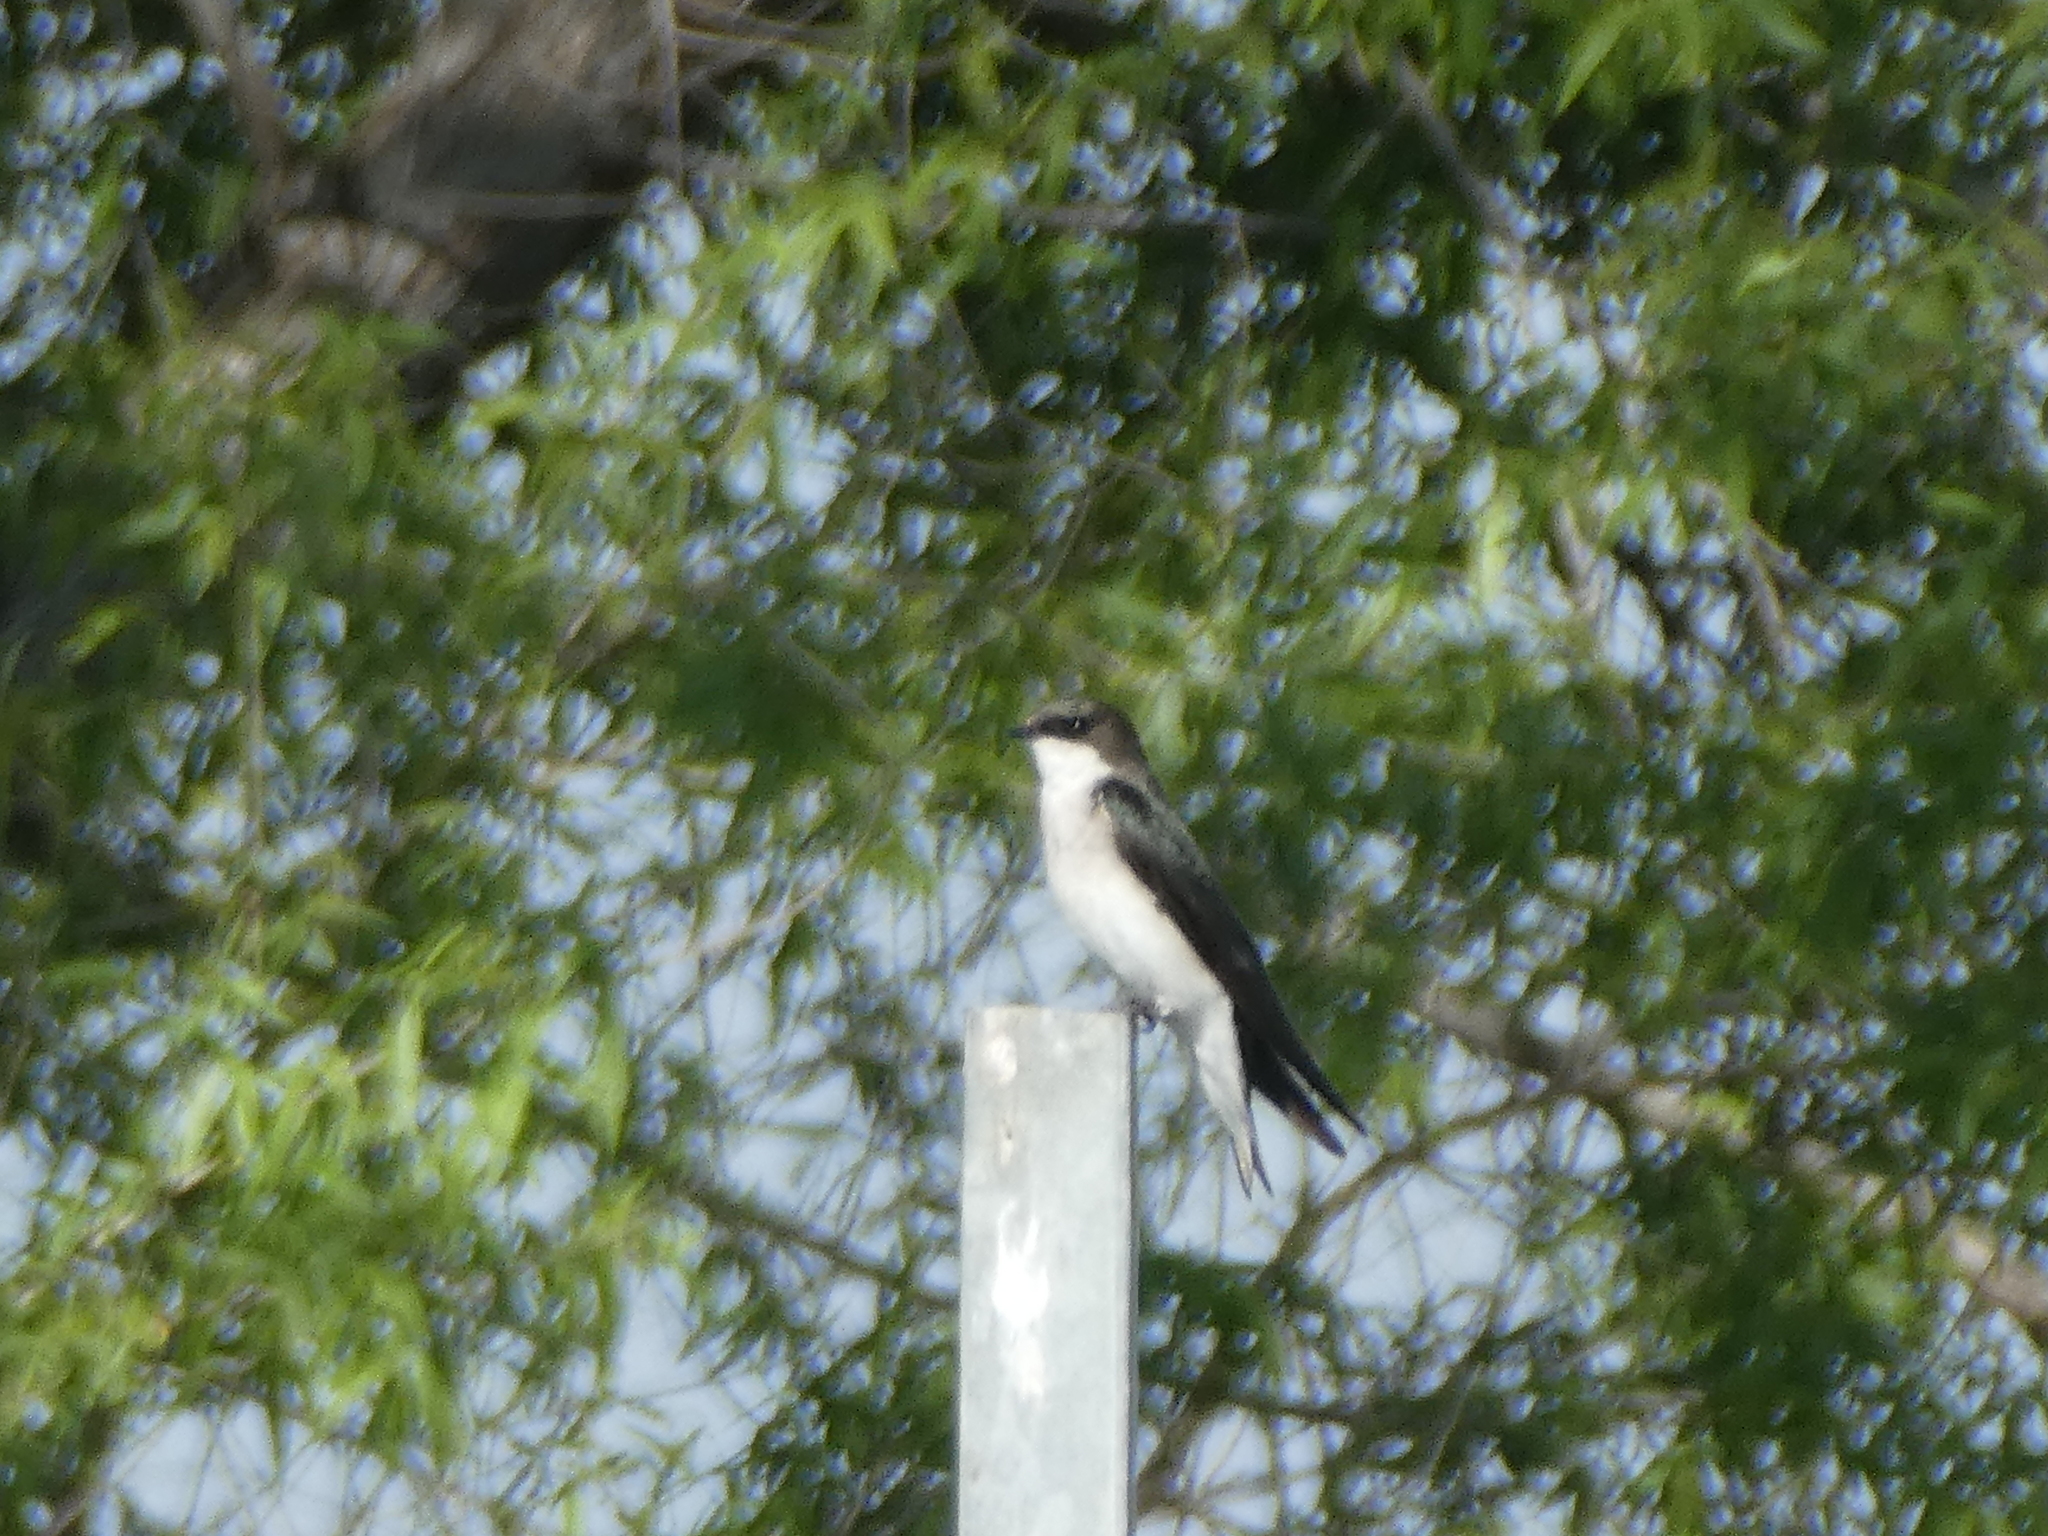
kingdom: Animalia
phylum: Chordata
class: Aves
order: Passeriformes
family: Hirundinidae
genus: Tachycineta
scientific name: Tachycineta bicolor
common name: Tree swallow
